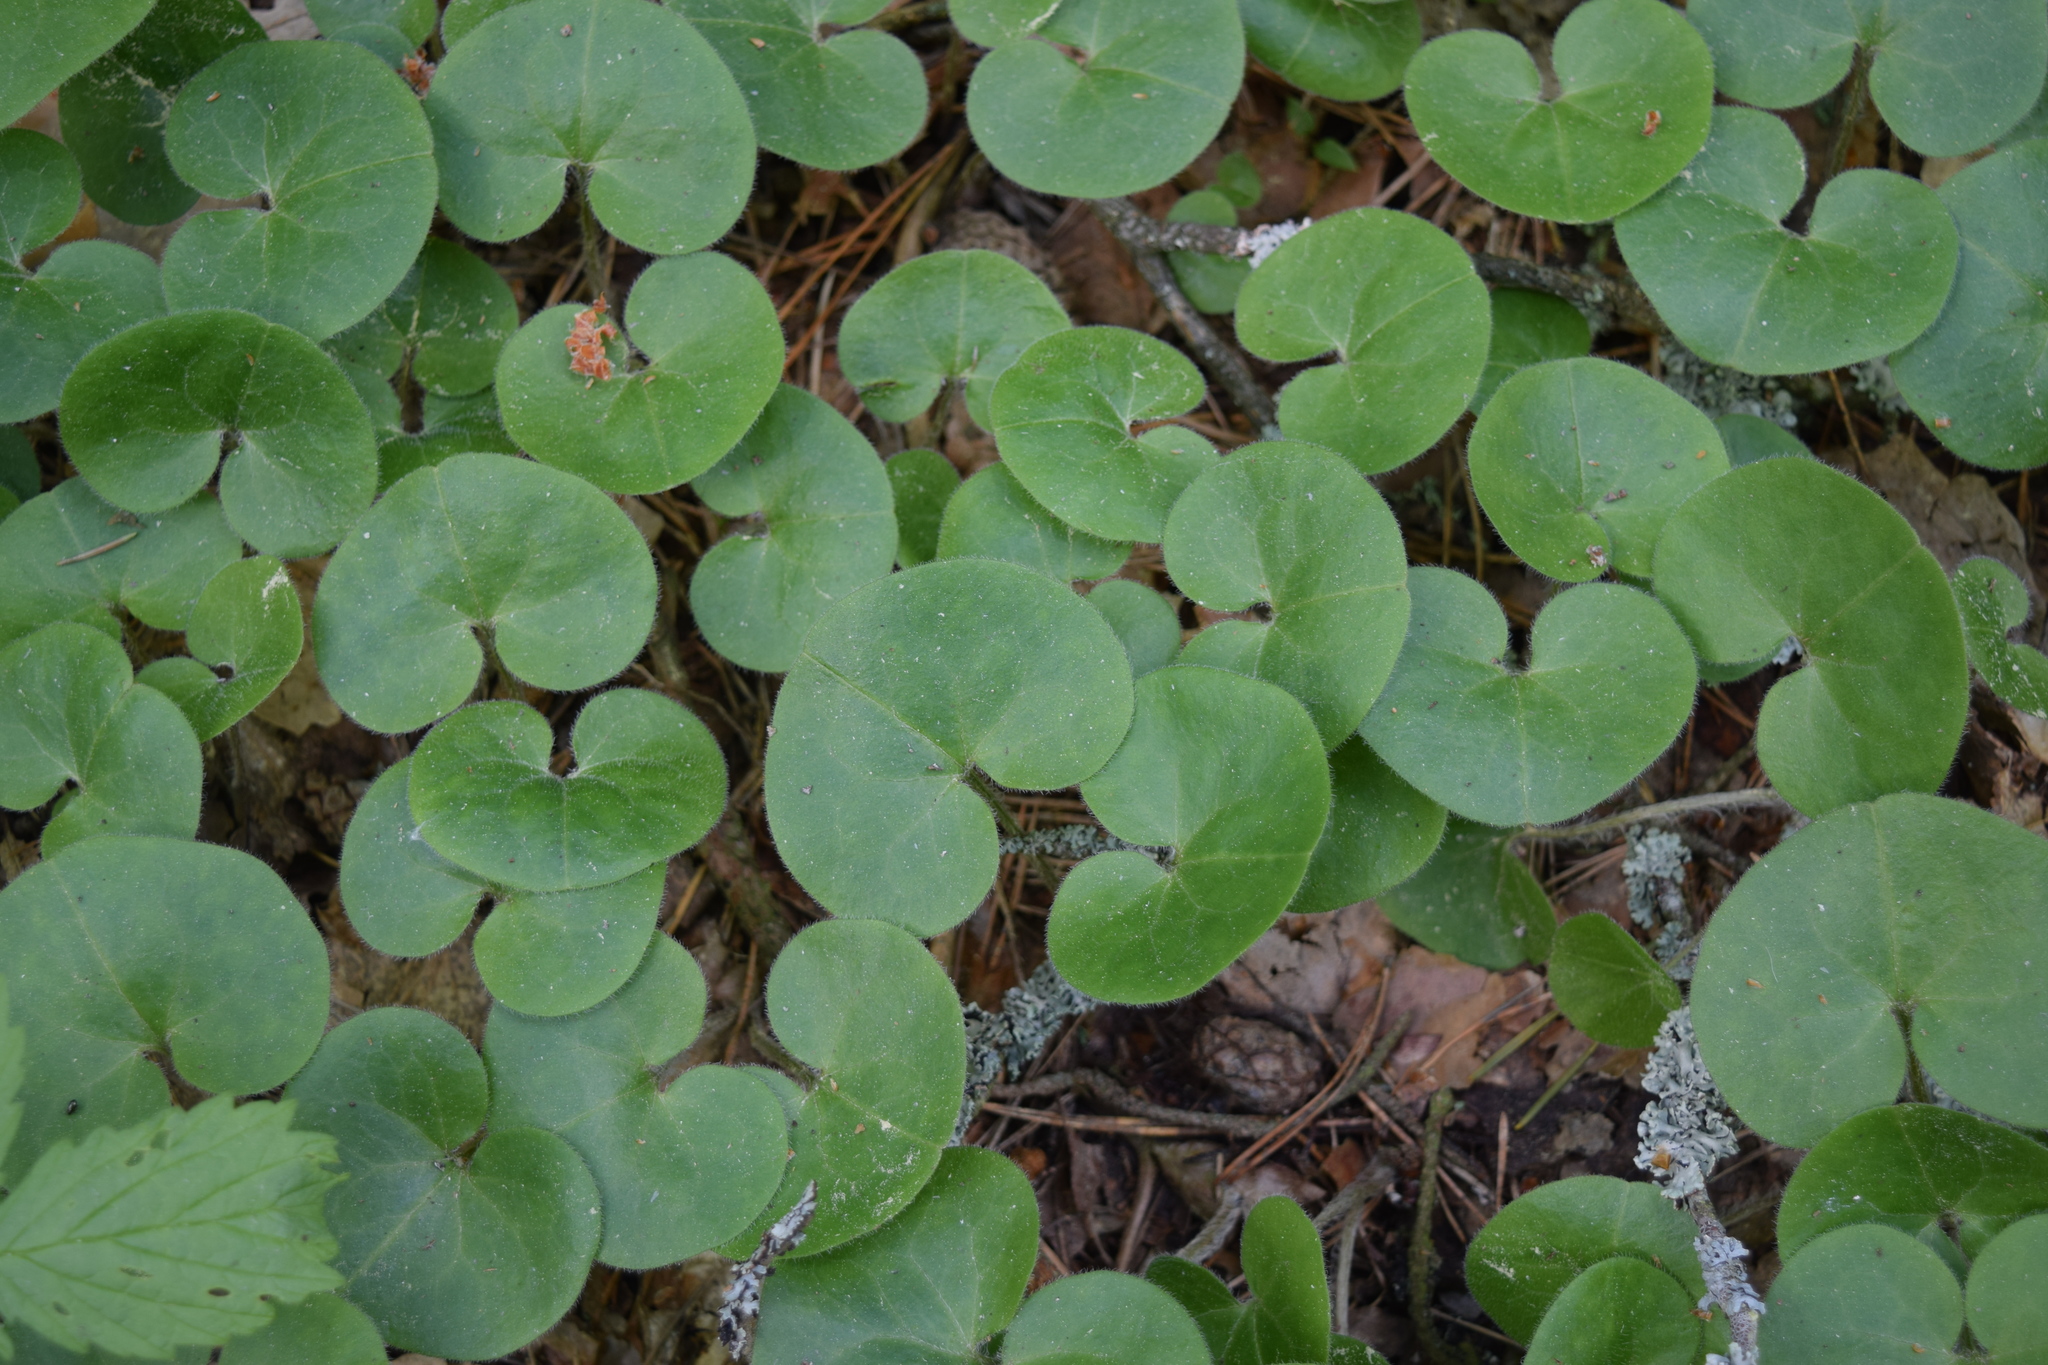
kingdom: Plantae
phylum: Tracheophyta
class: Magnoliopsida
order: Piperales
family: Aristolochiaceae
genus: Asarum
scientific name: Asarum europaeum
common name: Asarabacca
